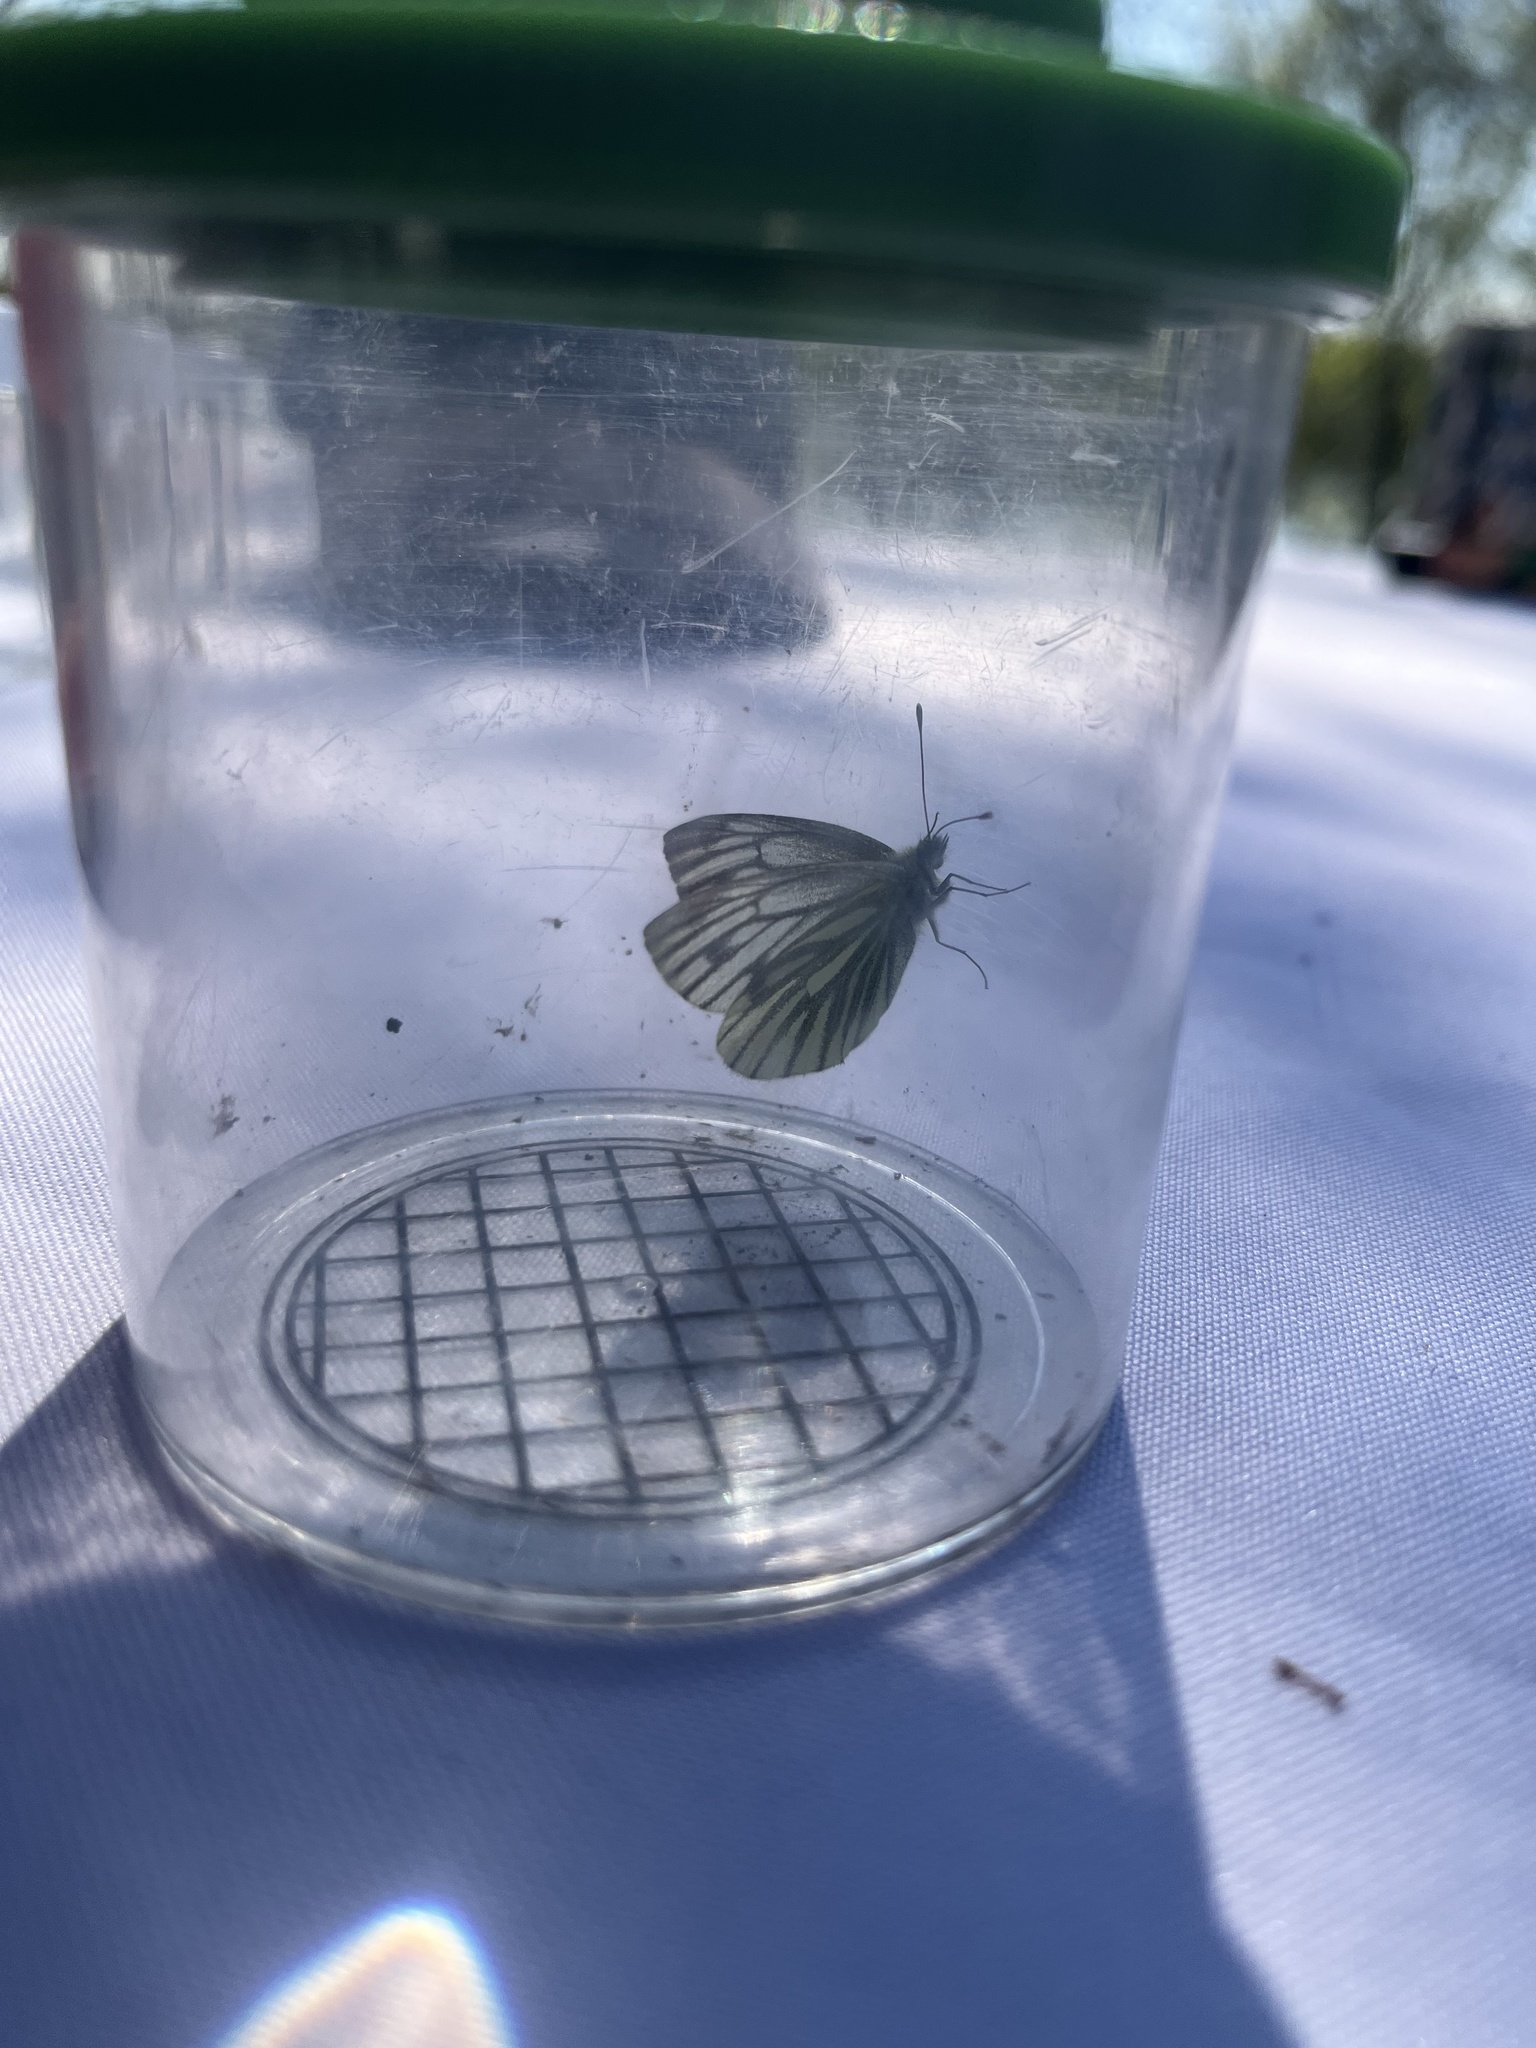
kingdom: Animalia
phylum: Arthropoda
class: Insecta
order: Lepidoptera
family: Pieridae
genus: Pieris
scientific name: Pieris napi
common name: Green-veined white
